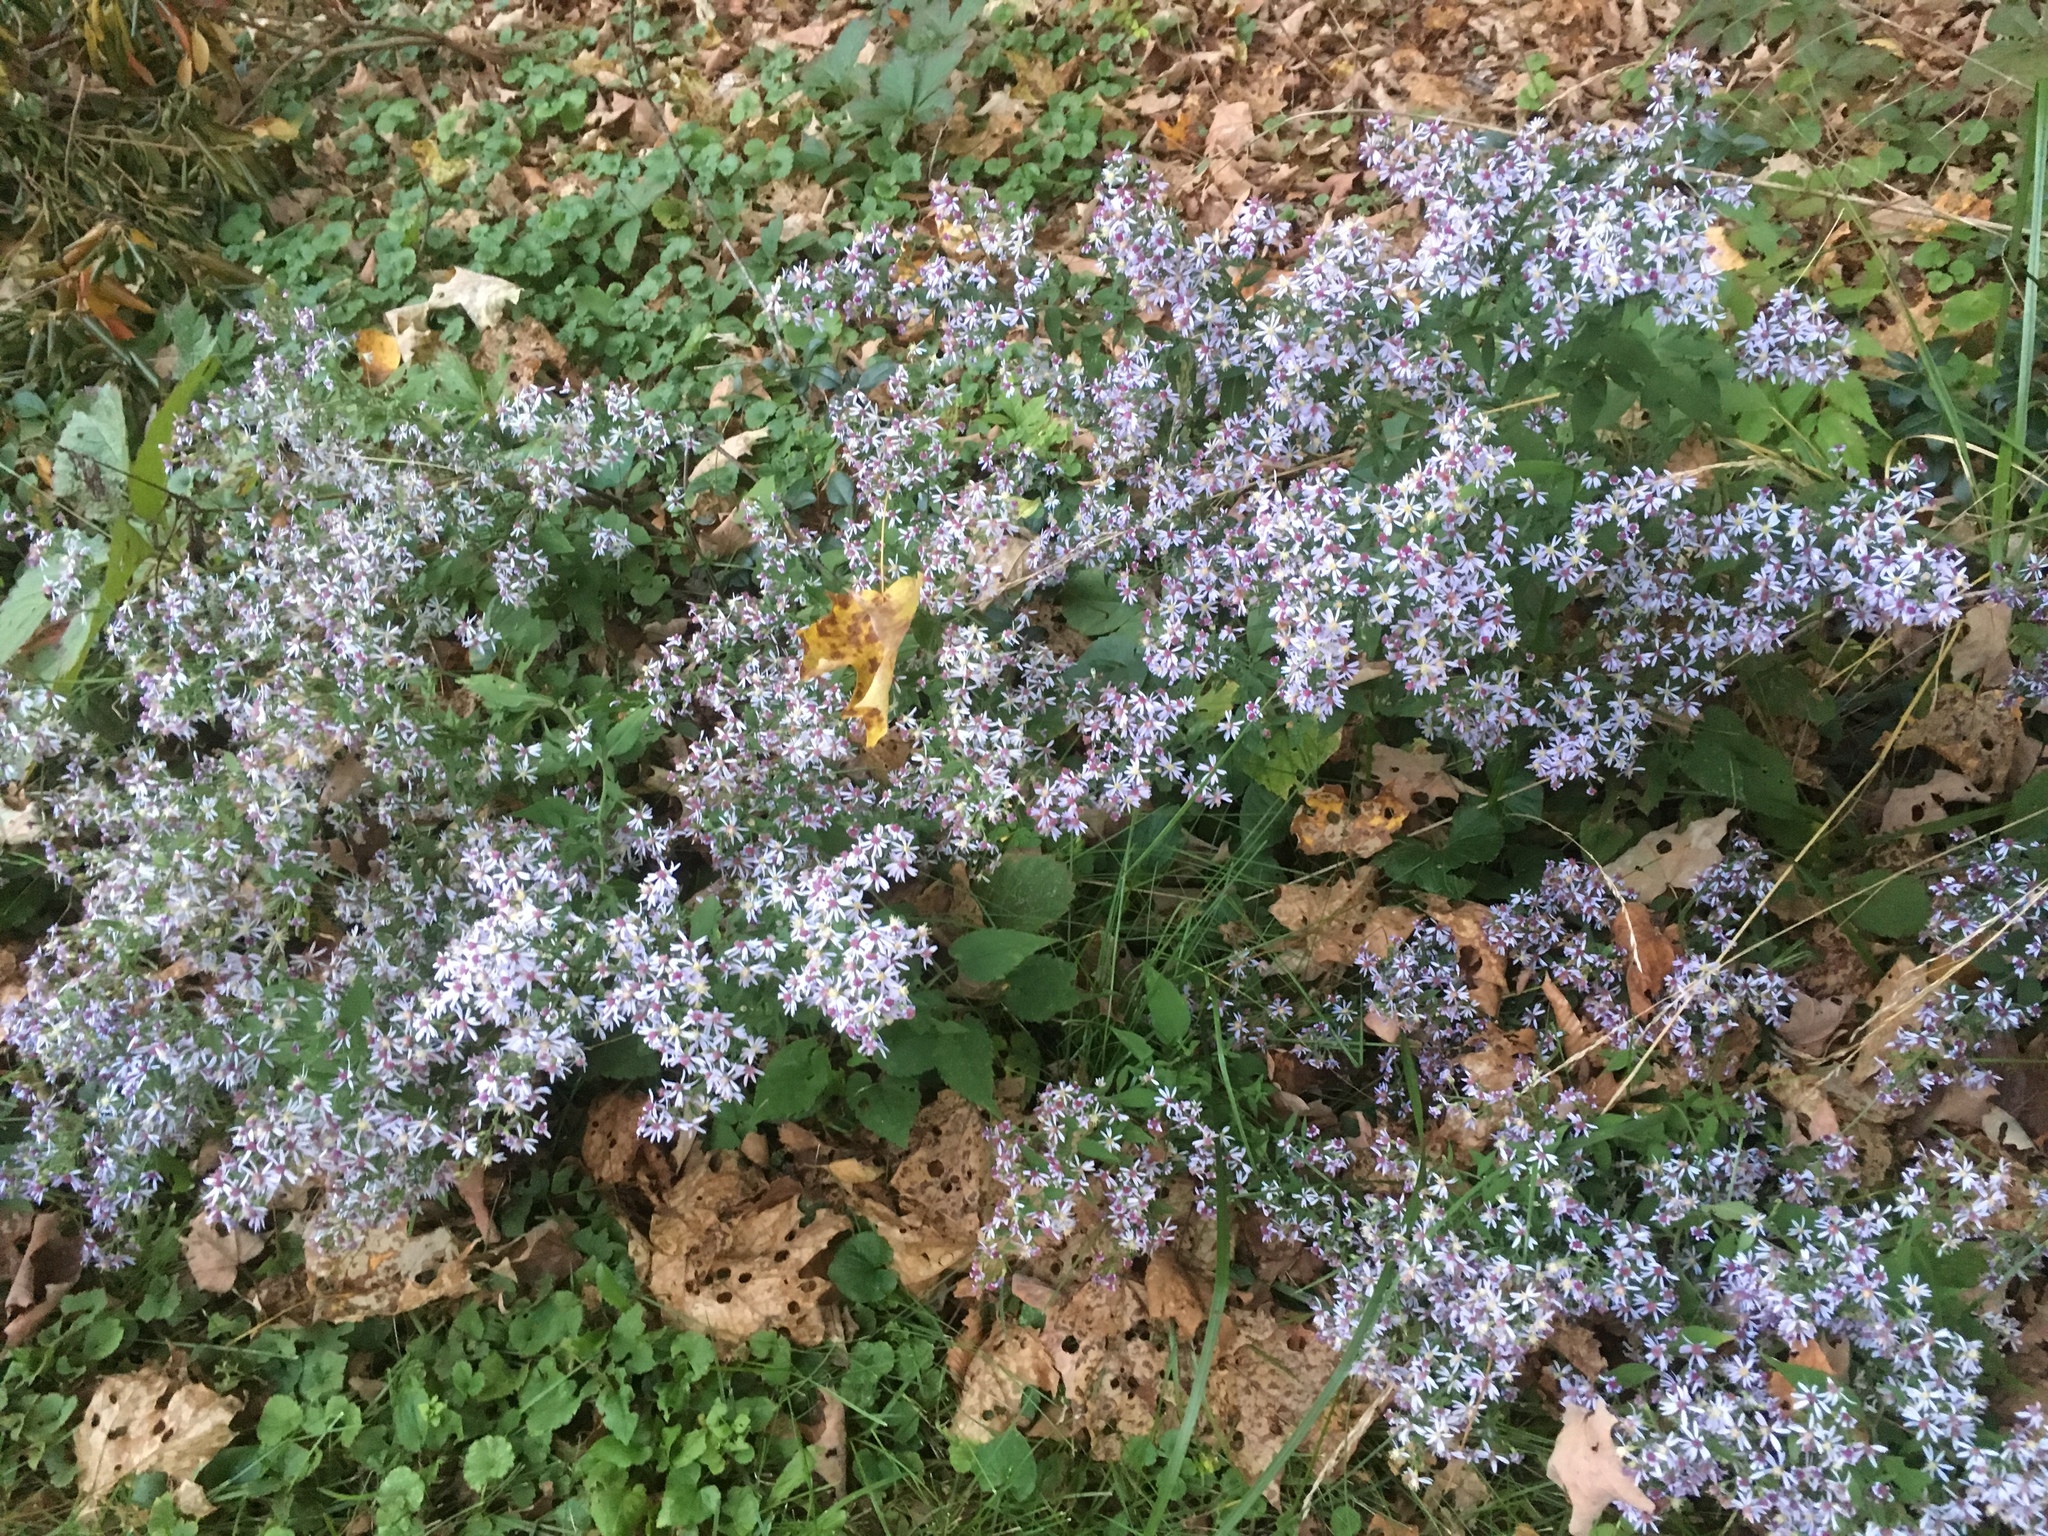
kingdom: Plantae
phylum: Tracheophyta
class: Magnoliopsida
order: Asterales
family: Asteraceae
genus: Symphyotrichum
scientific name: Symphyotrichum cordifolium
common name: Beeweed
